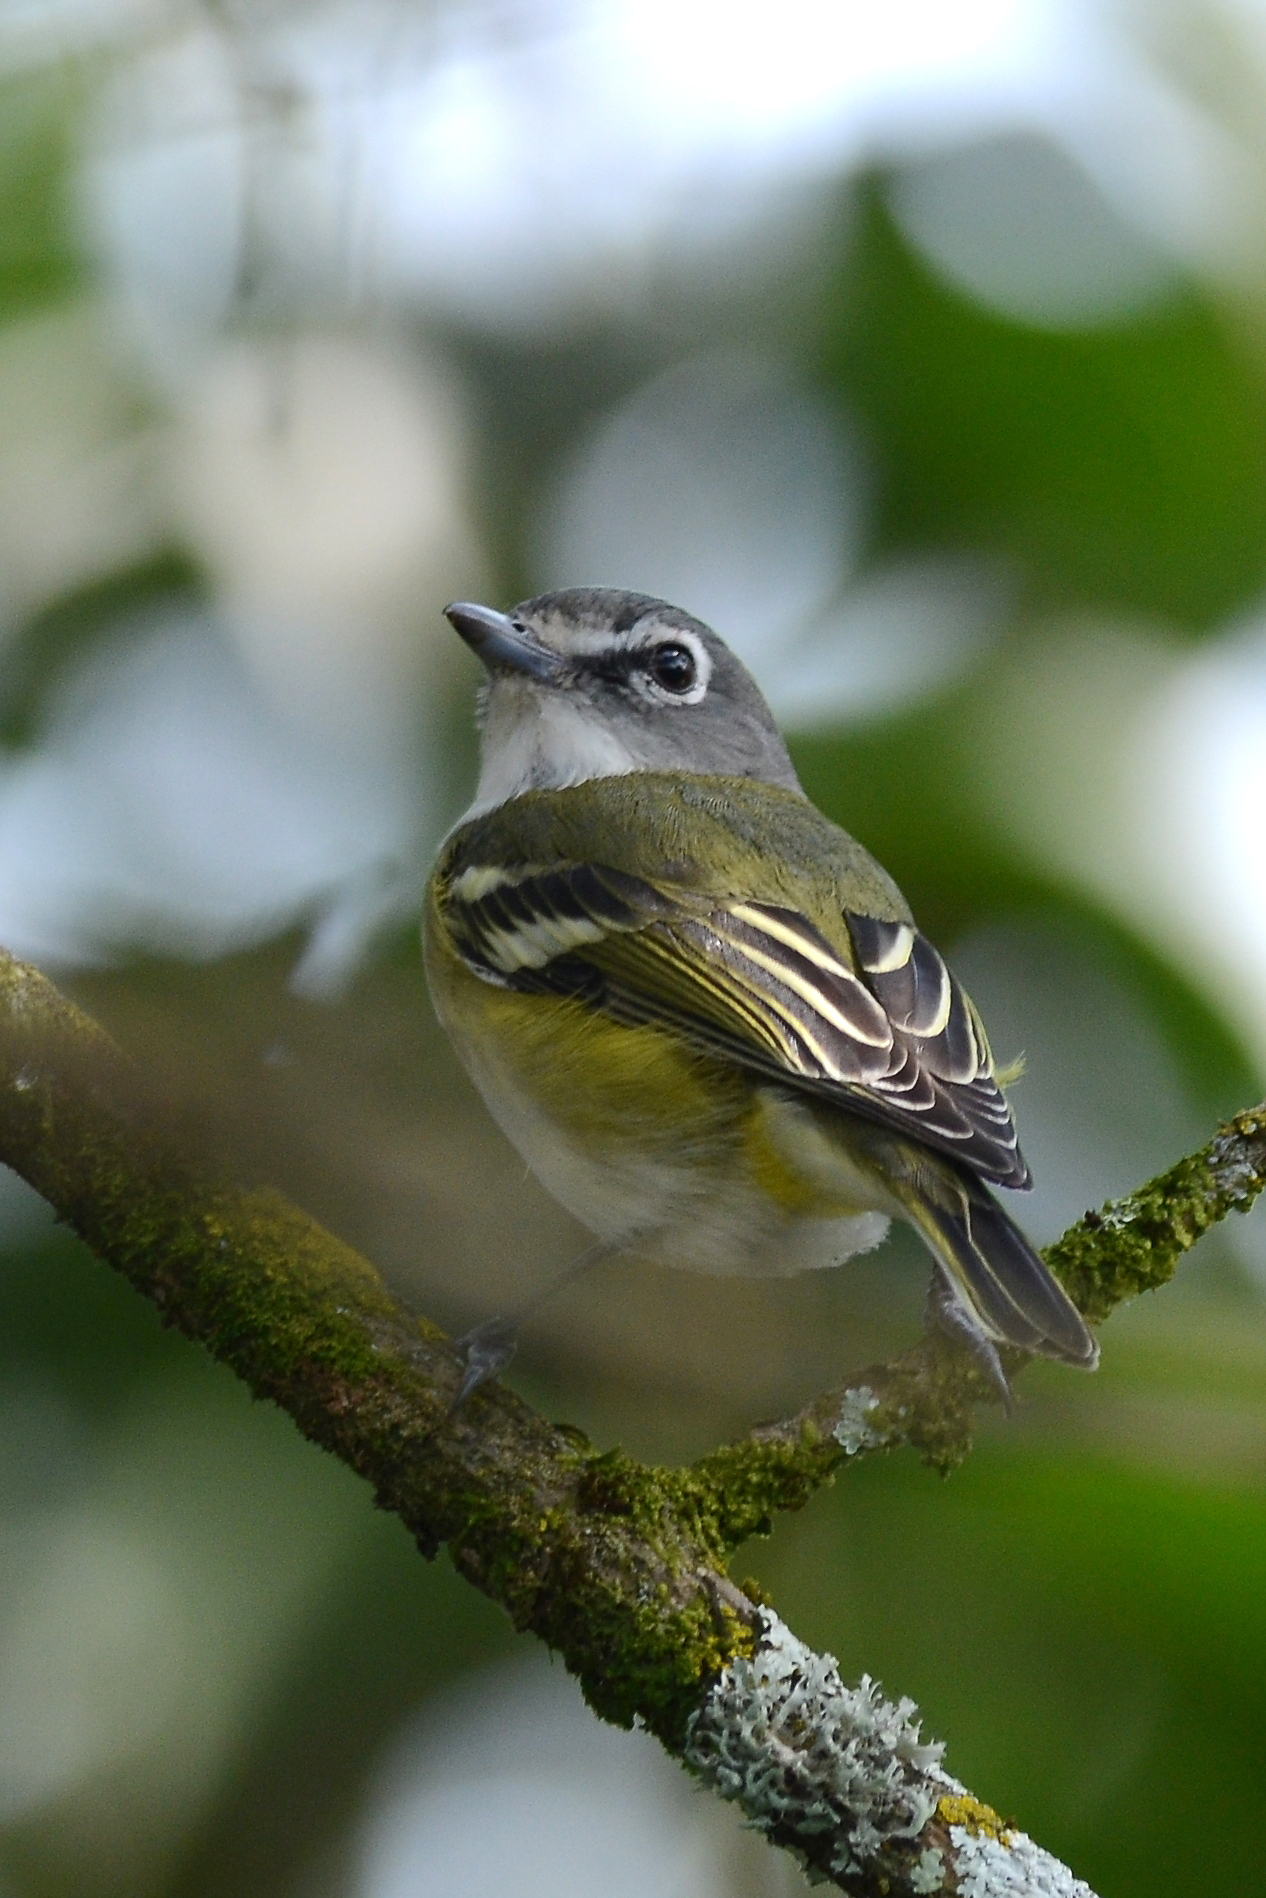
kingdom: Animalia
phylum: Chordata
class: Aves
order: Passeriformes
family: Vireonidae
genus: Vireo
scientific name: Vireo solitarius
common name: Blue-headed vireo
